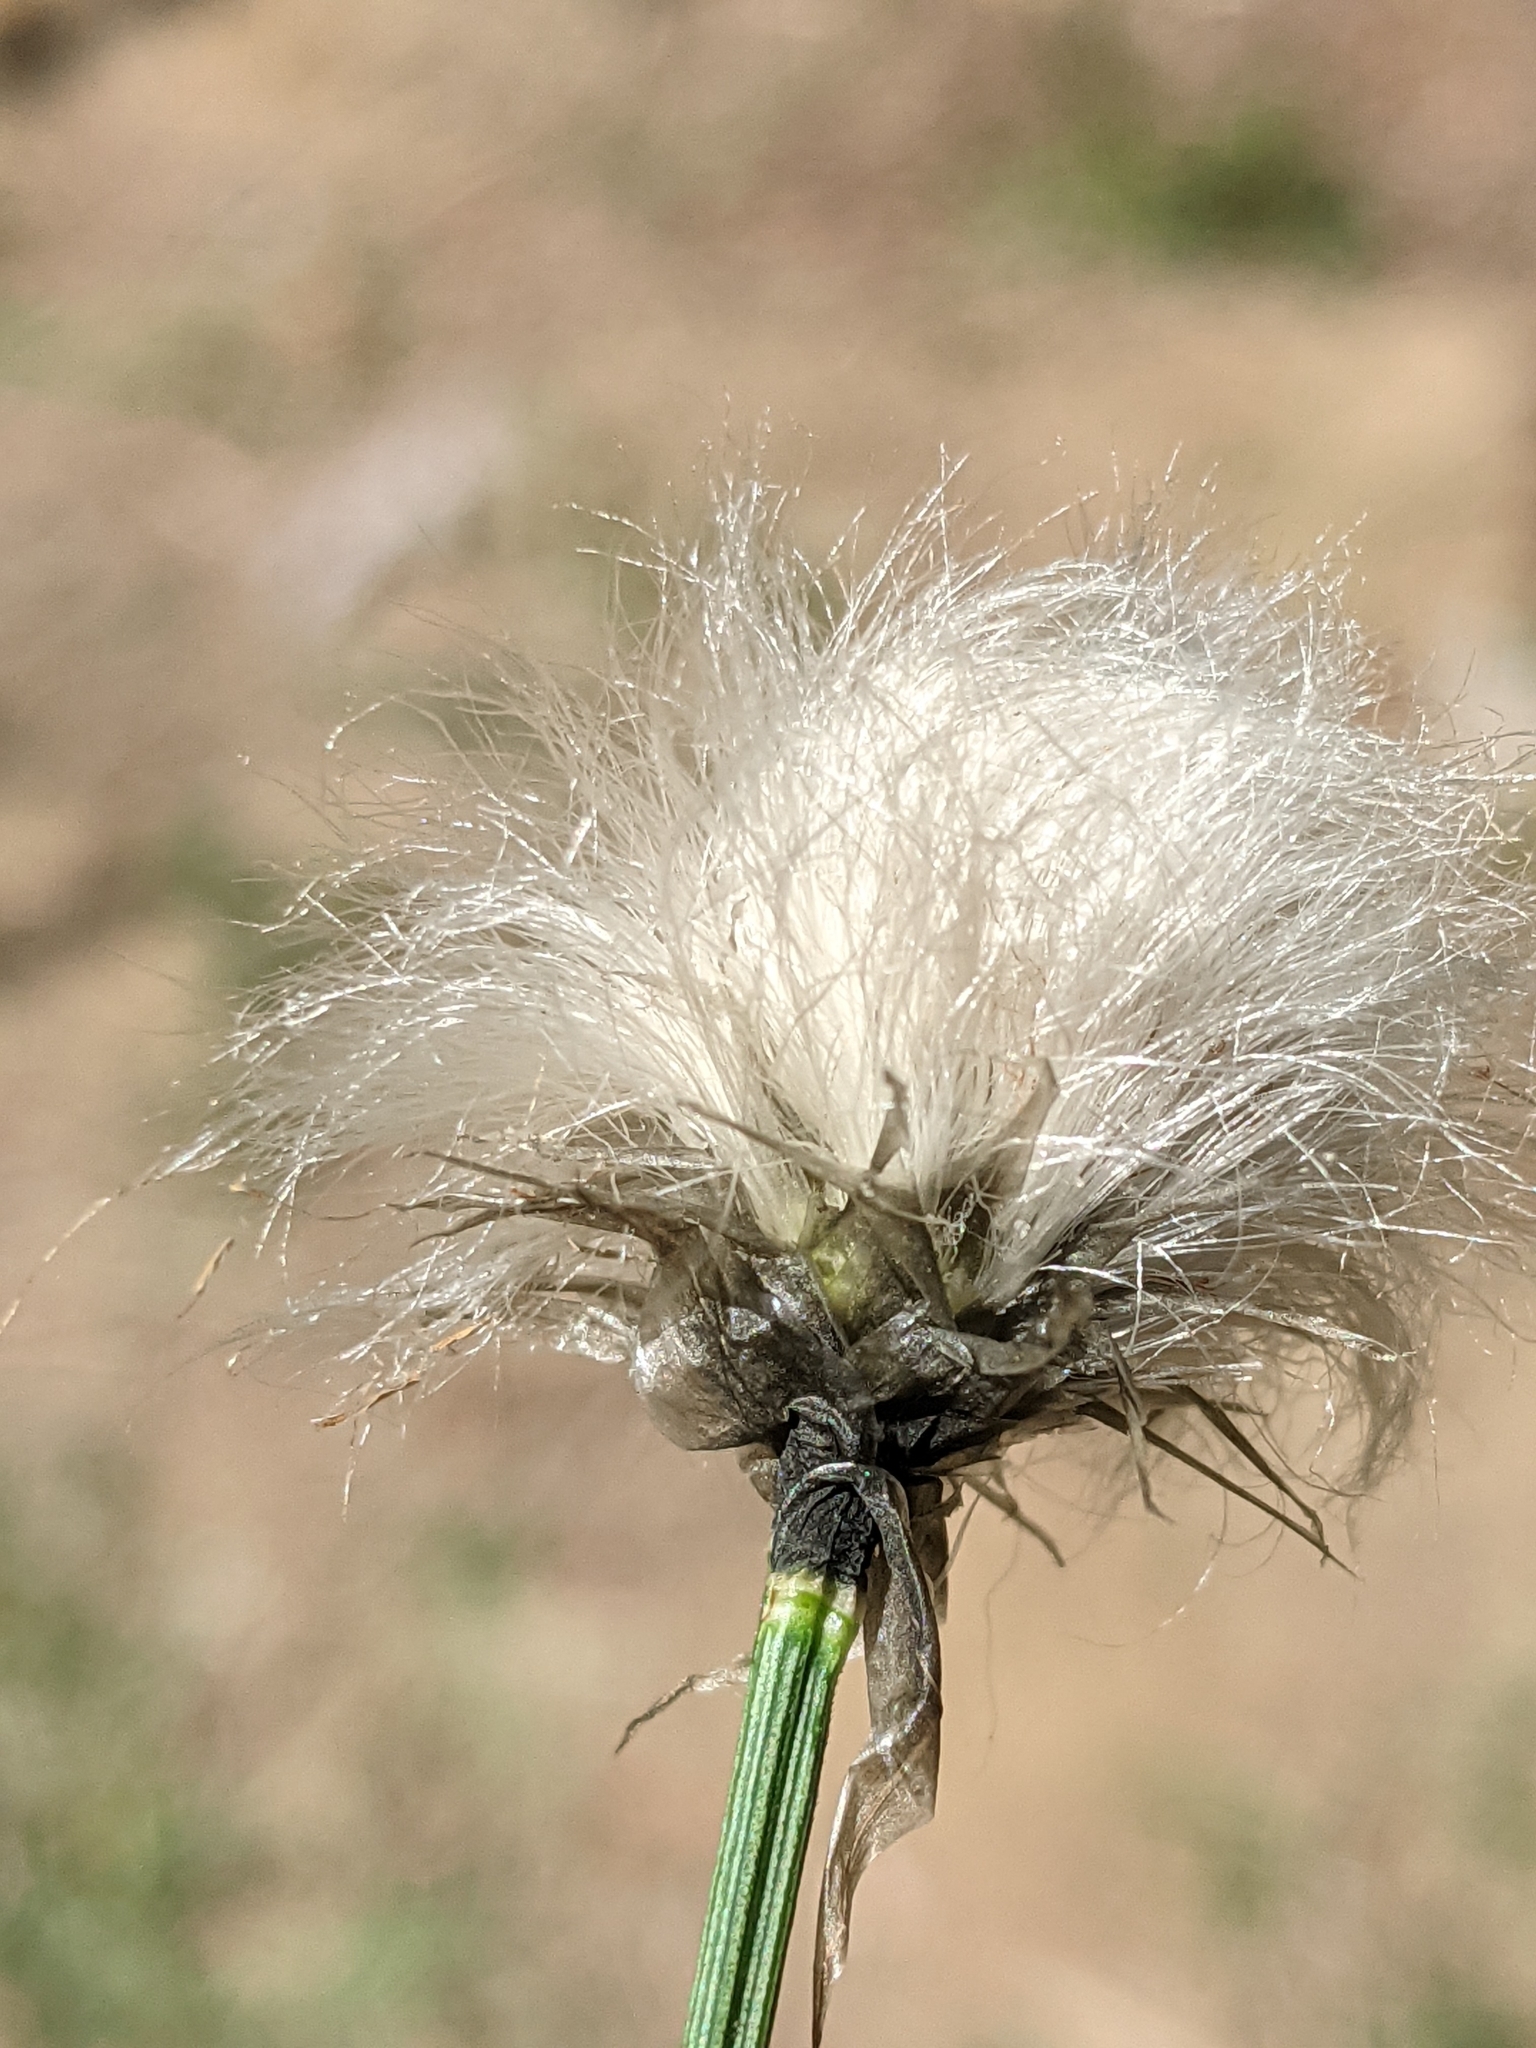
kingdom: Plantae
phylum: Tracheophyta
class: Liliopsida
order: Poales
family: Cyperaceae
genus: Eriophorum
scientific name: Eriophorum vaginatum
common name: Hare's-tail cottongrass
